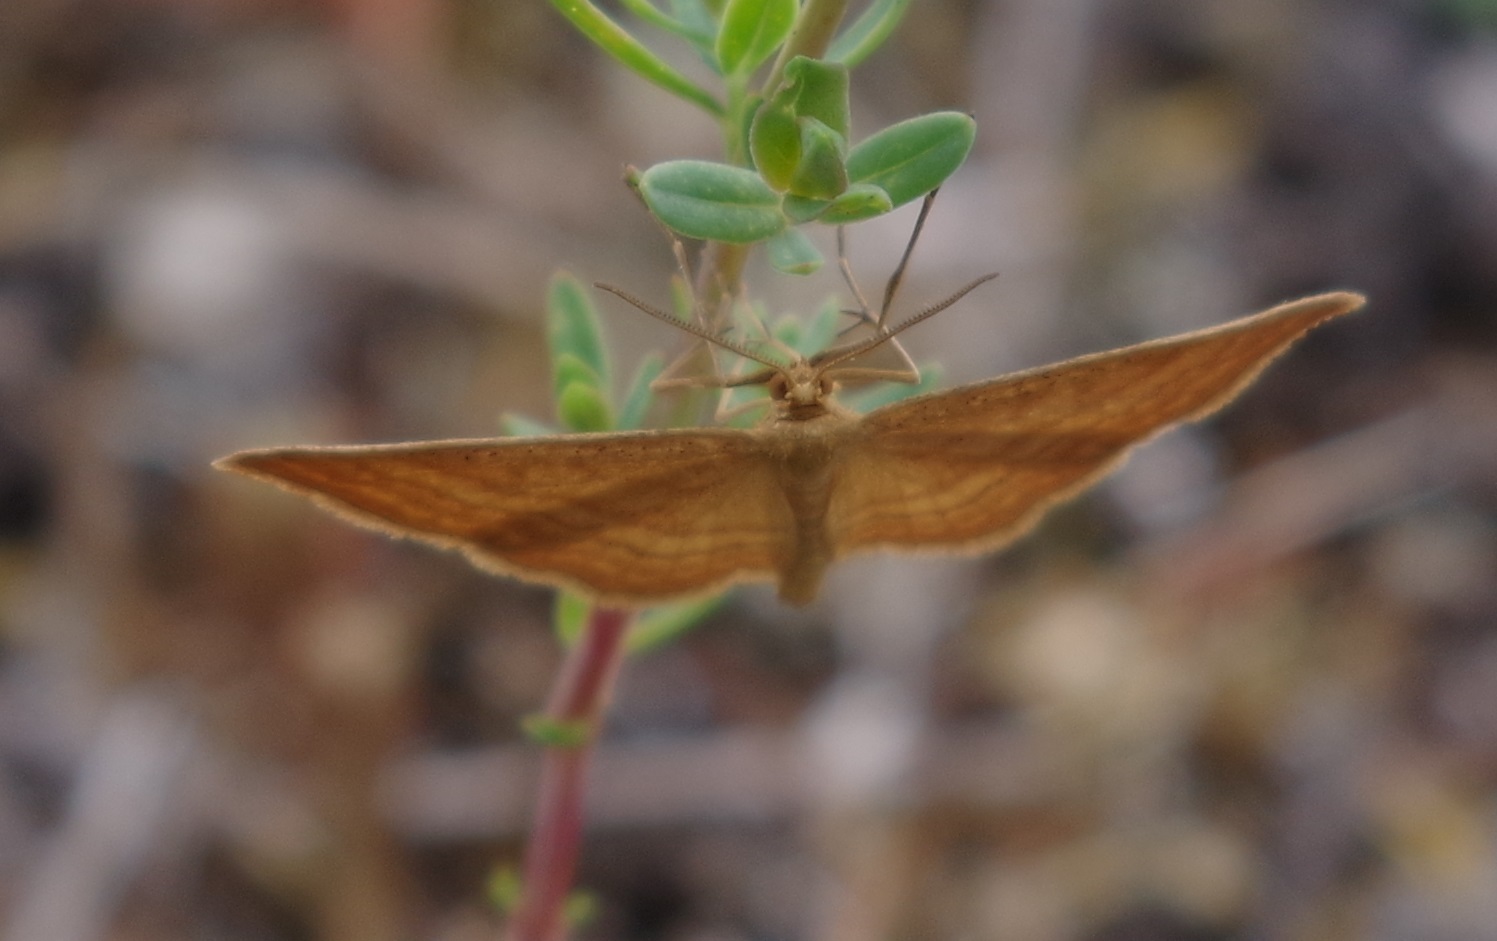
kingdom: Animalia
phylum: Arthropoda
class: Insecta
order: Lepidoptera
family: Geometridae
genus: Idaea
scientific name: Idaea ochrata
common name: Bright wave
